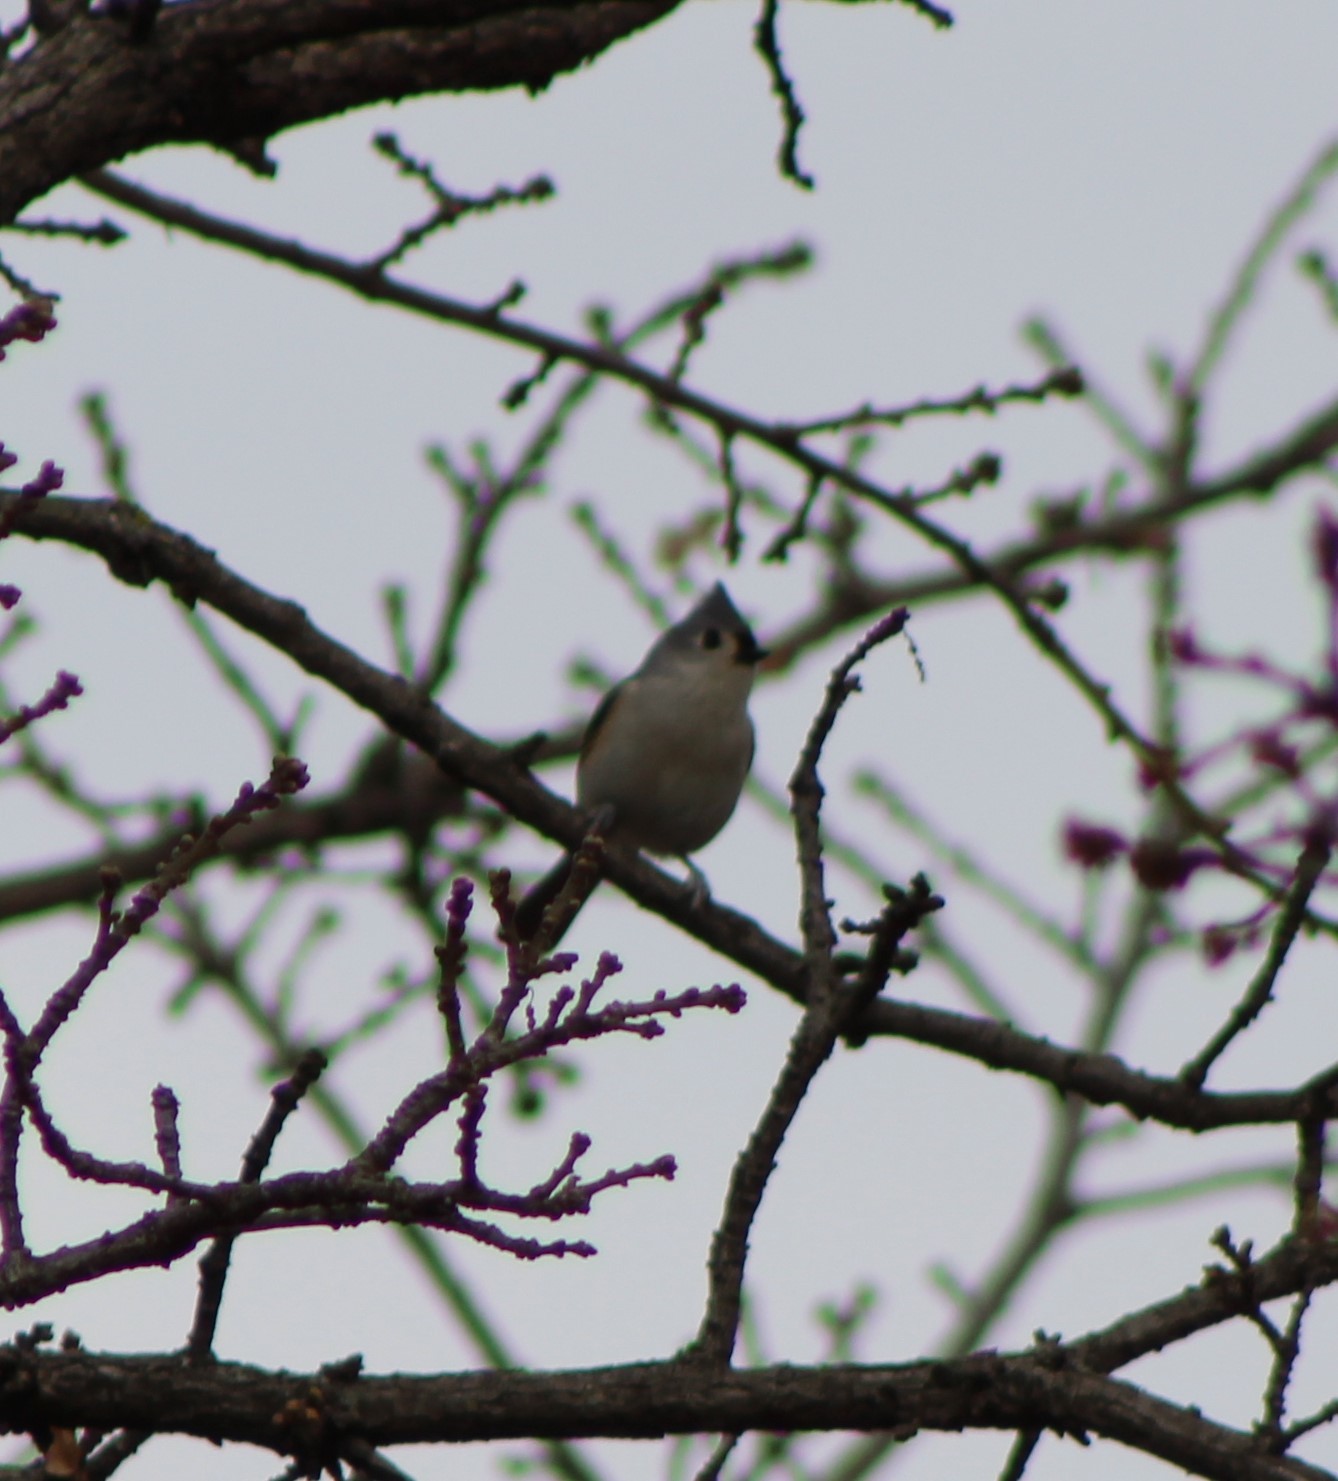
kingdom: Animalia
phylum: Chordata
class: Aves
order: Passeriformes
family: Paridae
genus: Baeolophus
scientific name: Baeolophus bicolor
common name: Tufted titmouse
